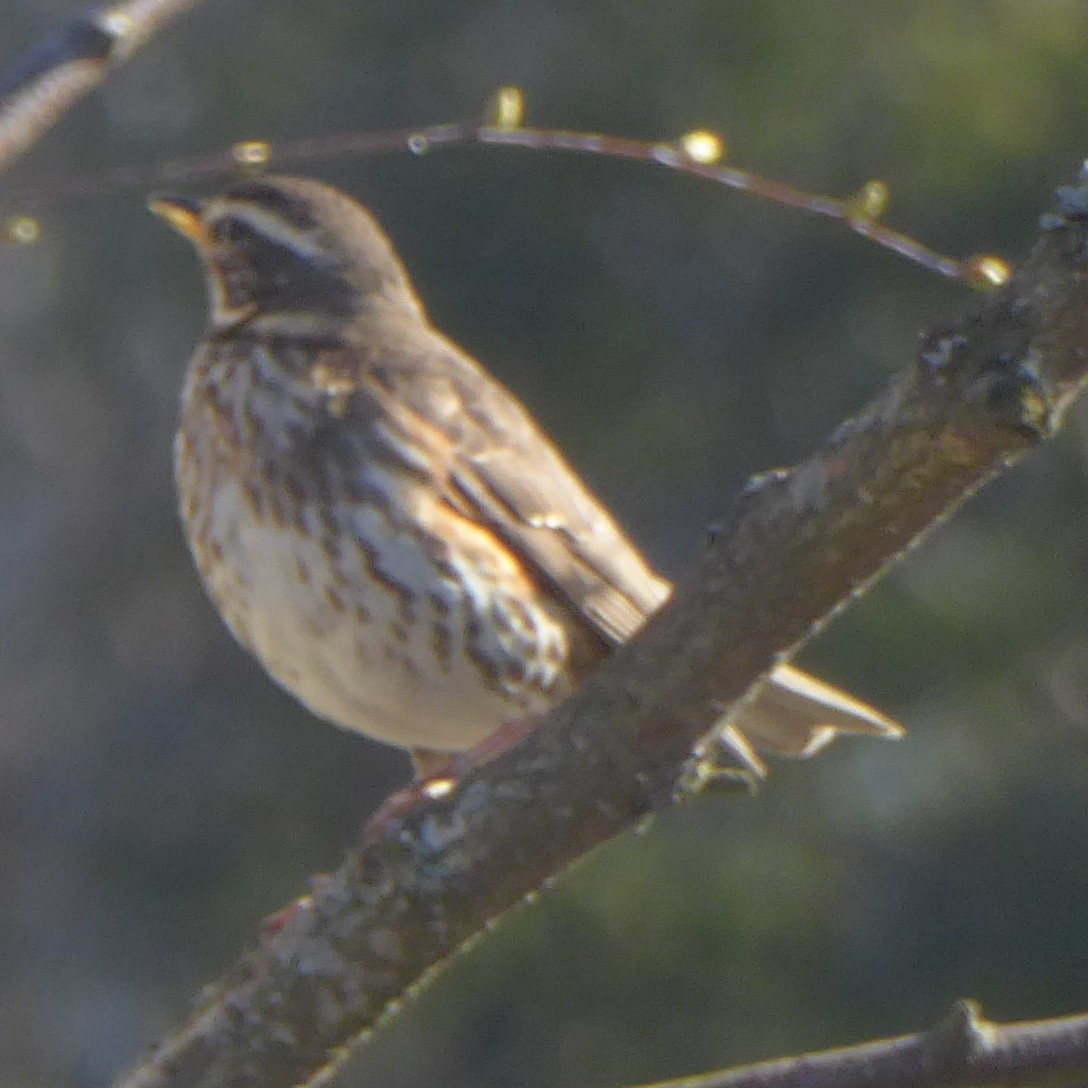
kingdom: Animalia
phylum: Chordata
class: Aves
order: Passeriformes
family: Turdidae
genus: Turdus
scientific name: Turdus iliacus
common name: Redwing
